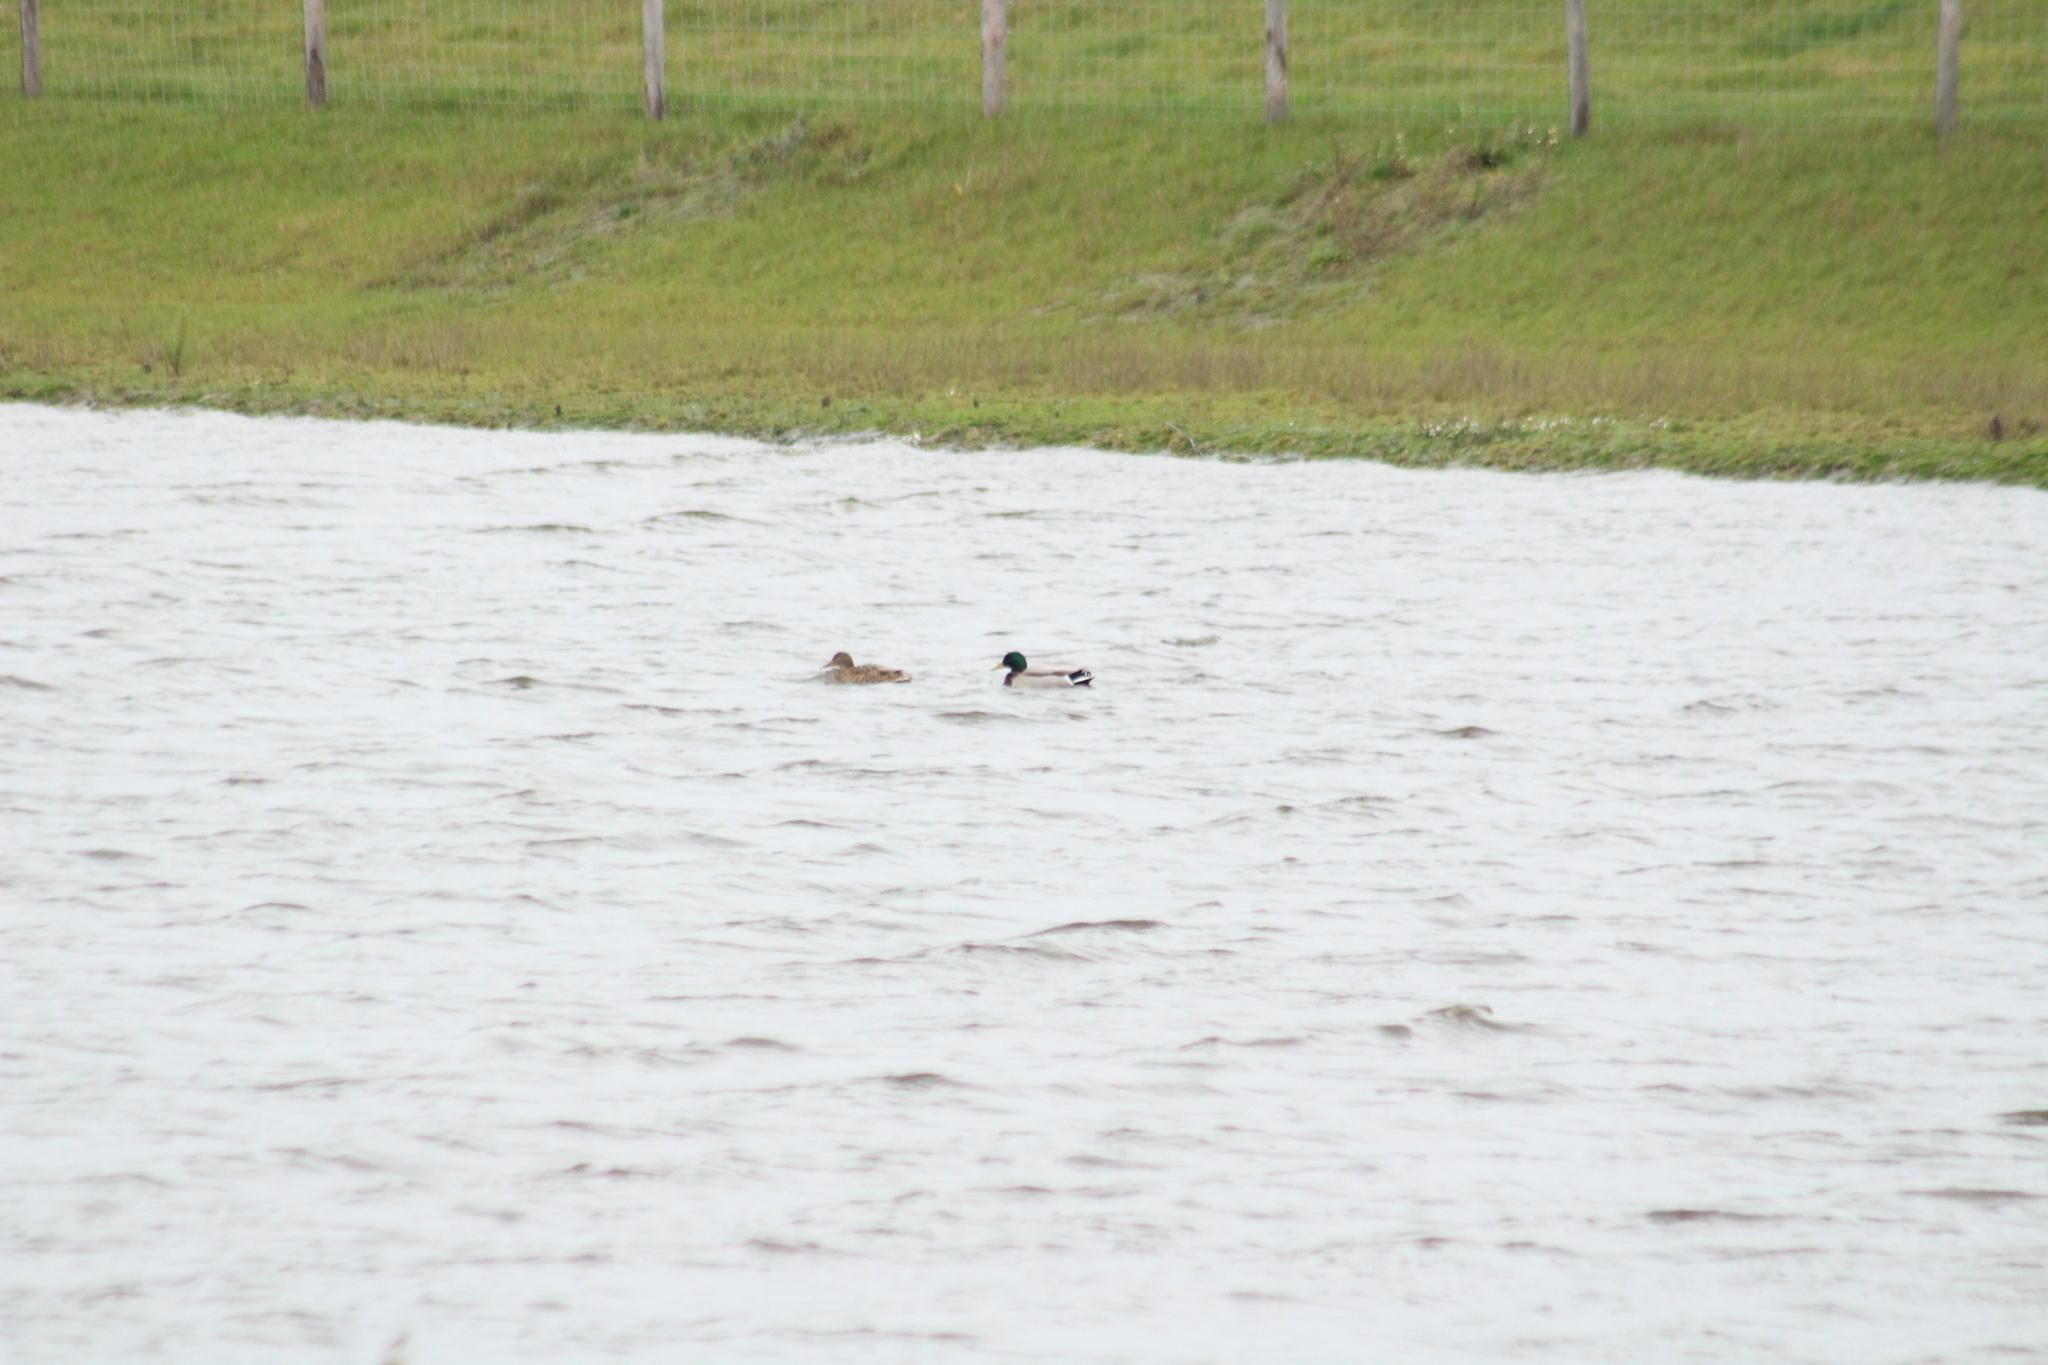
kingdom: Animalia
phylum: Chordata
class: Aves
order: Anseriformes
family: Anatidae
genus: Anas
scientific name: Anas platyrhynchos
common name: Mallard
